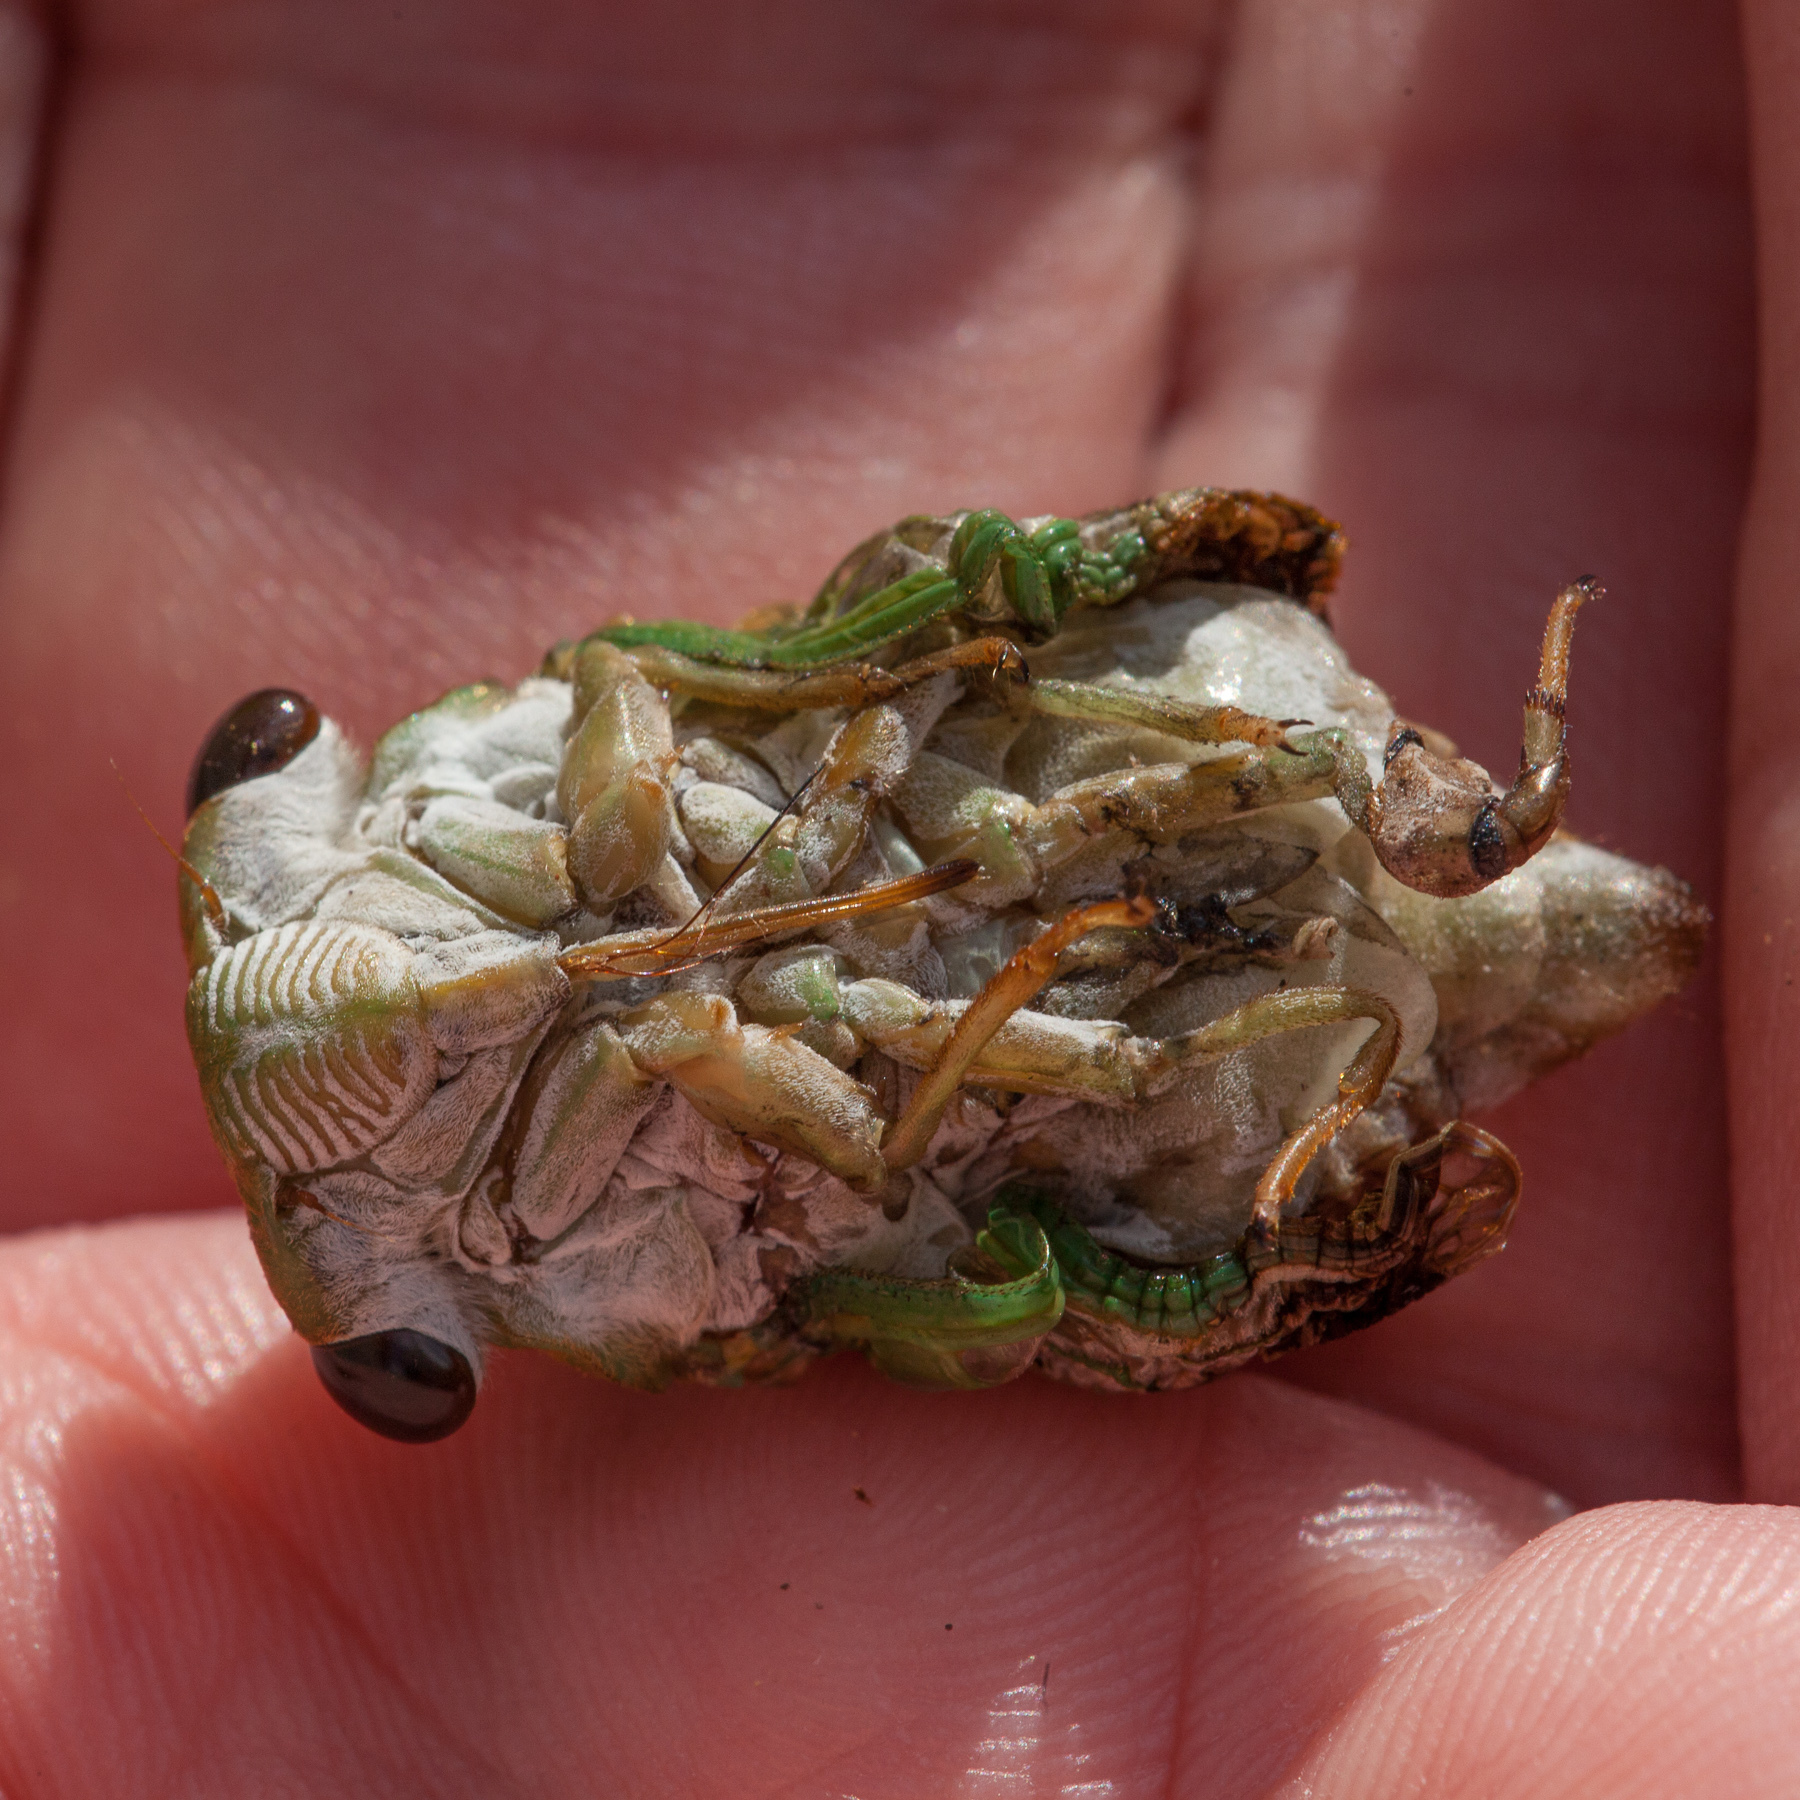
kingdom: Animalia
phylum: Arthropoda
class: Insecta
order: Hemiptera
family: Cicadidae
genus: Neotibicen
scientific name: Neotibicen superbus
